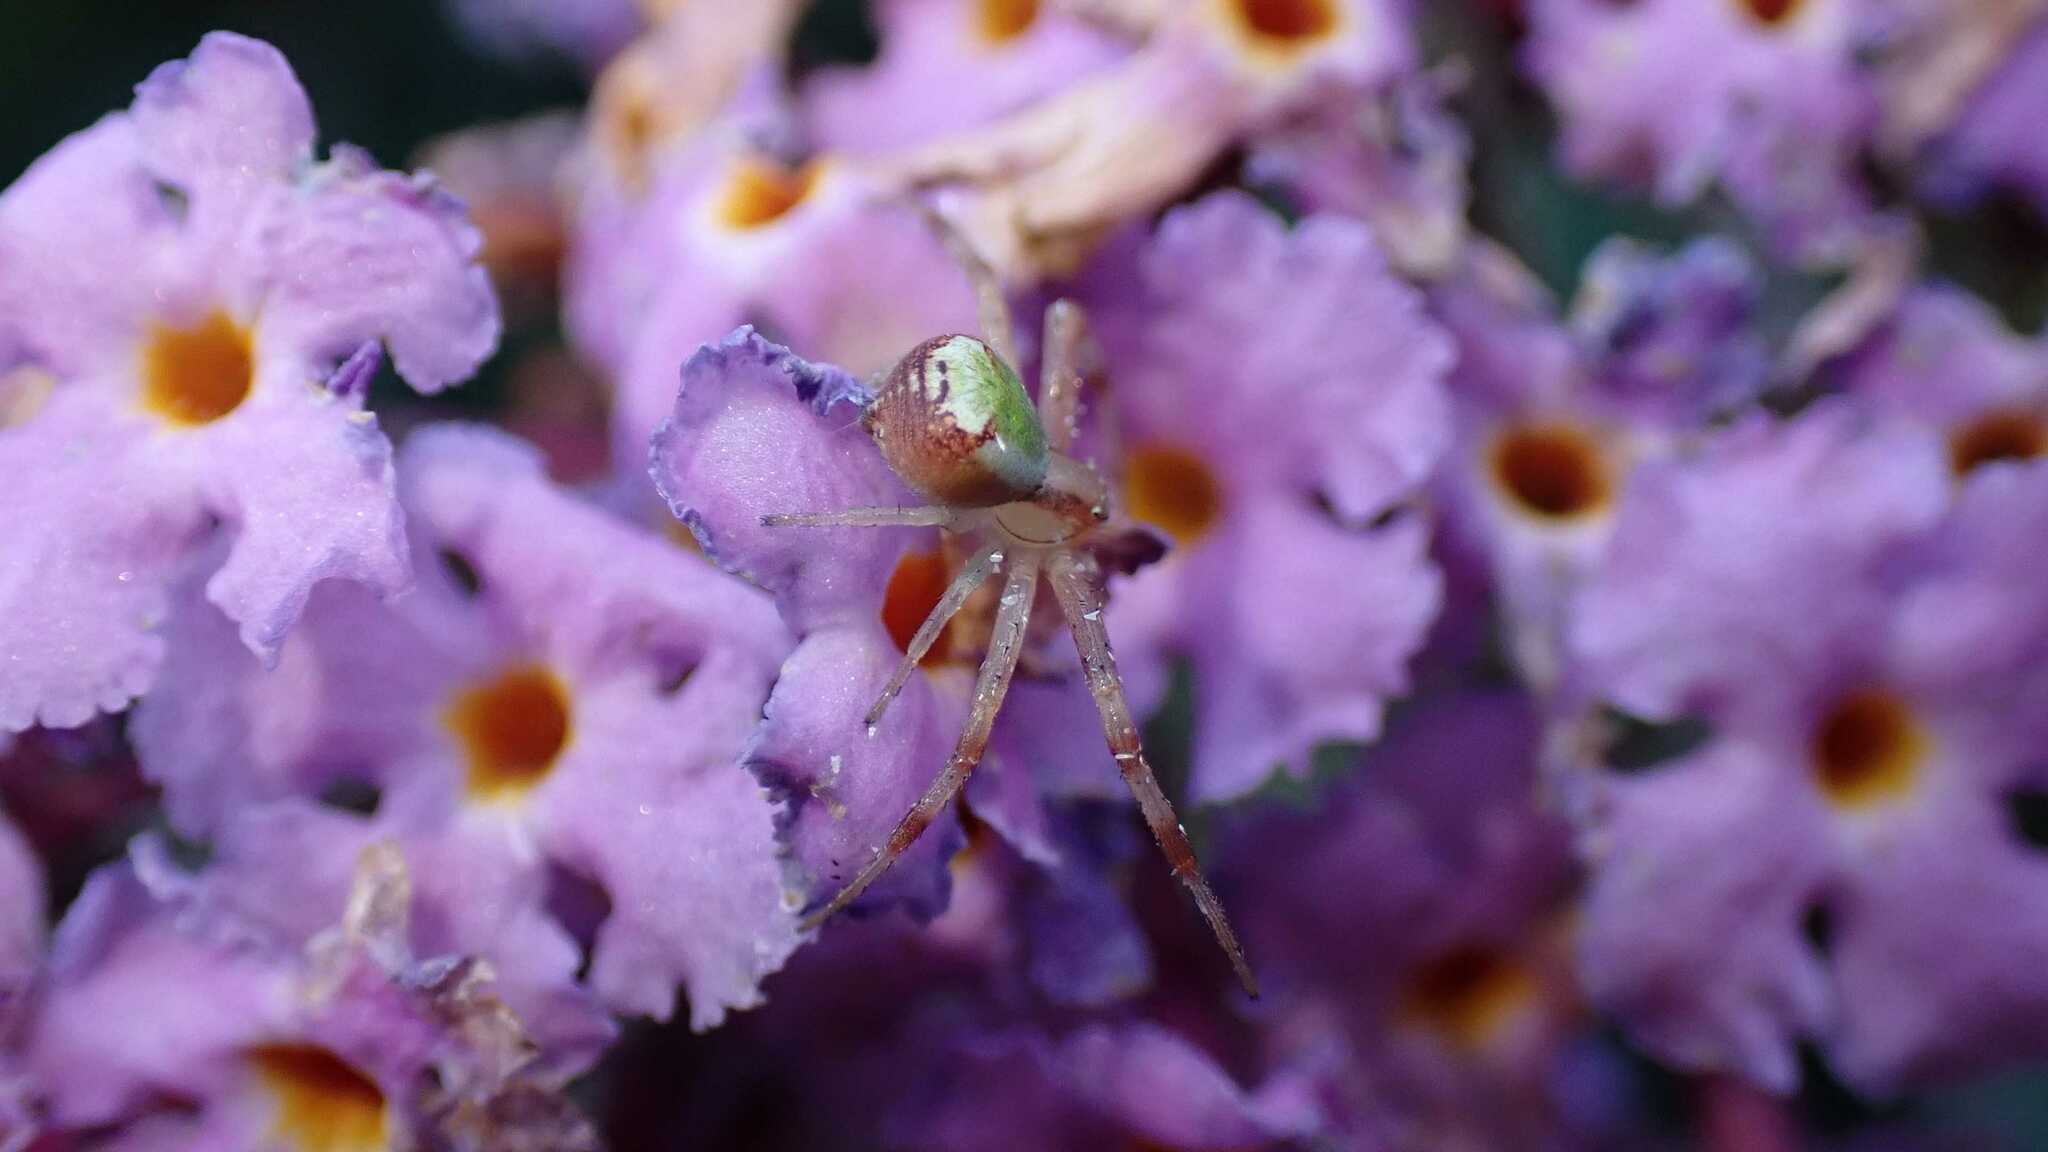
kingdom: Animalia
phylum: Arthropoda
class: Arachnida
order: Araneae
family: Thomisidae
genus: Ebrechtella
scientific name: Ebrechtella tricuspidata
